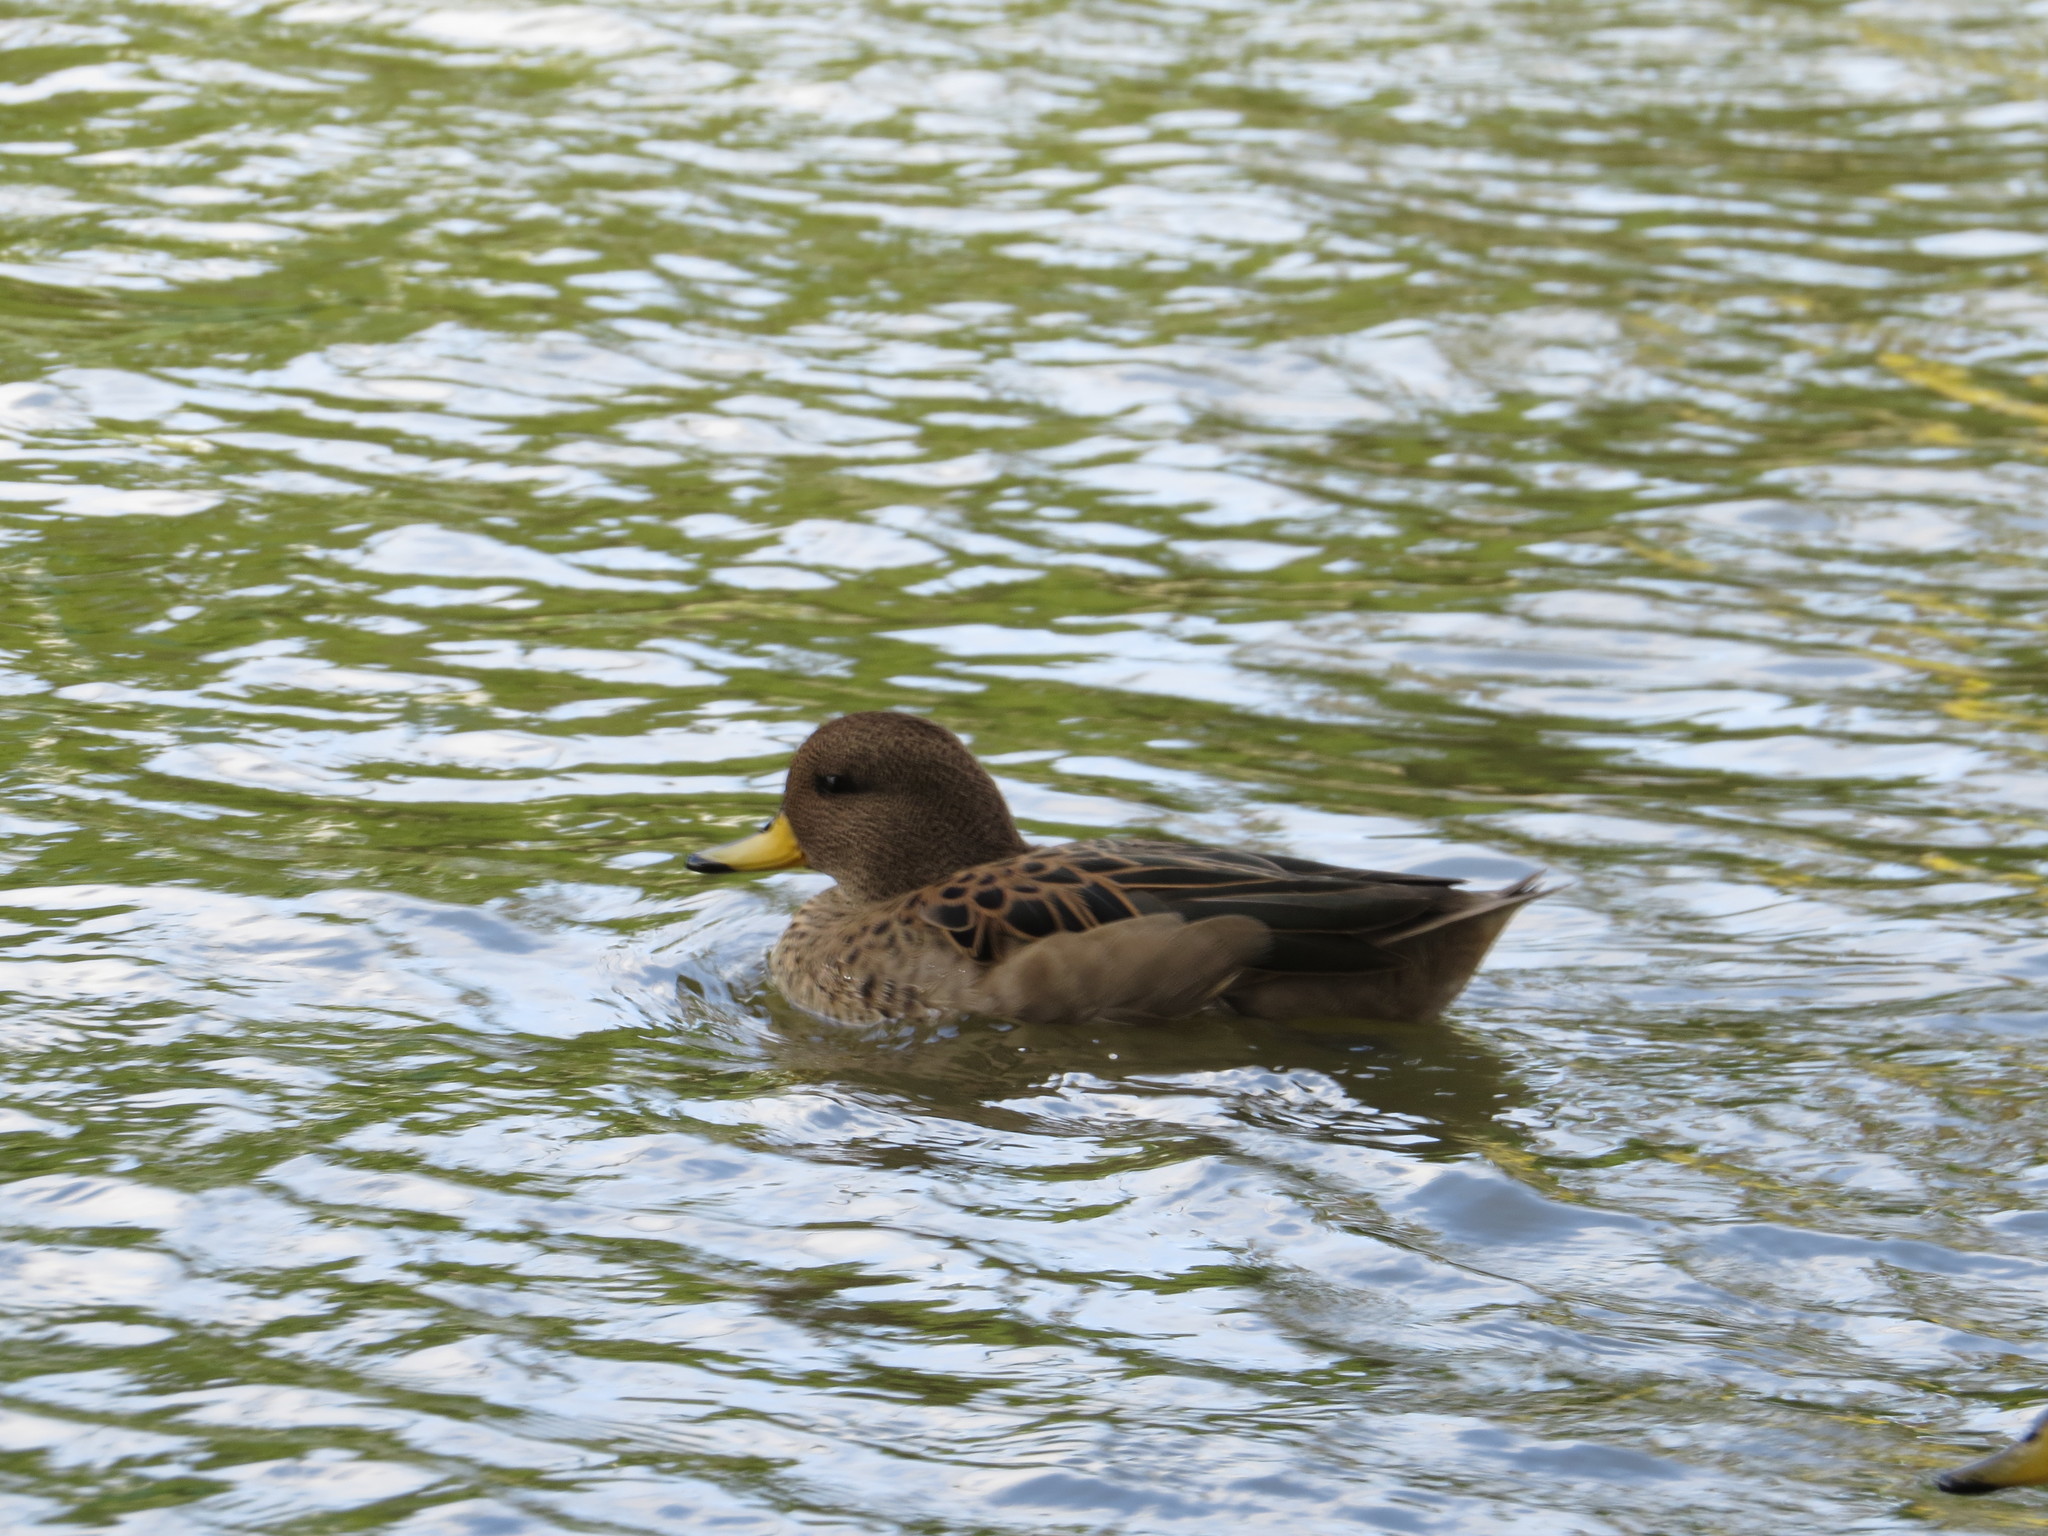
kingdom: Animalia
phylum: Chordata
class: Aves
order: Anseriformes
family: Anatidae
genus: Anas
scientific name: Anas flavirostris
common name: Yellow-billed teal
